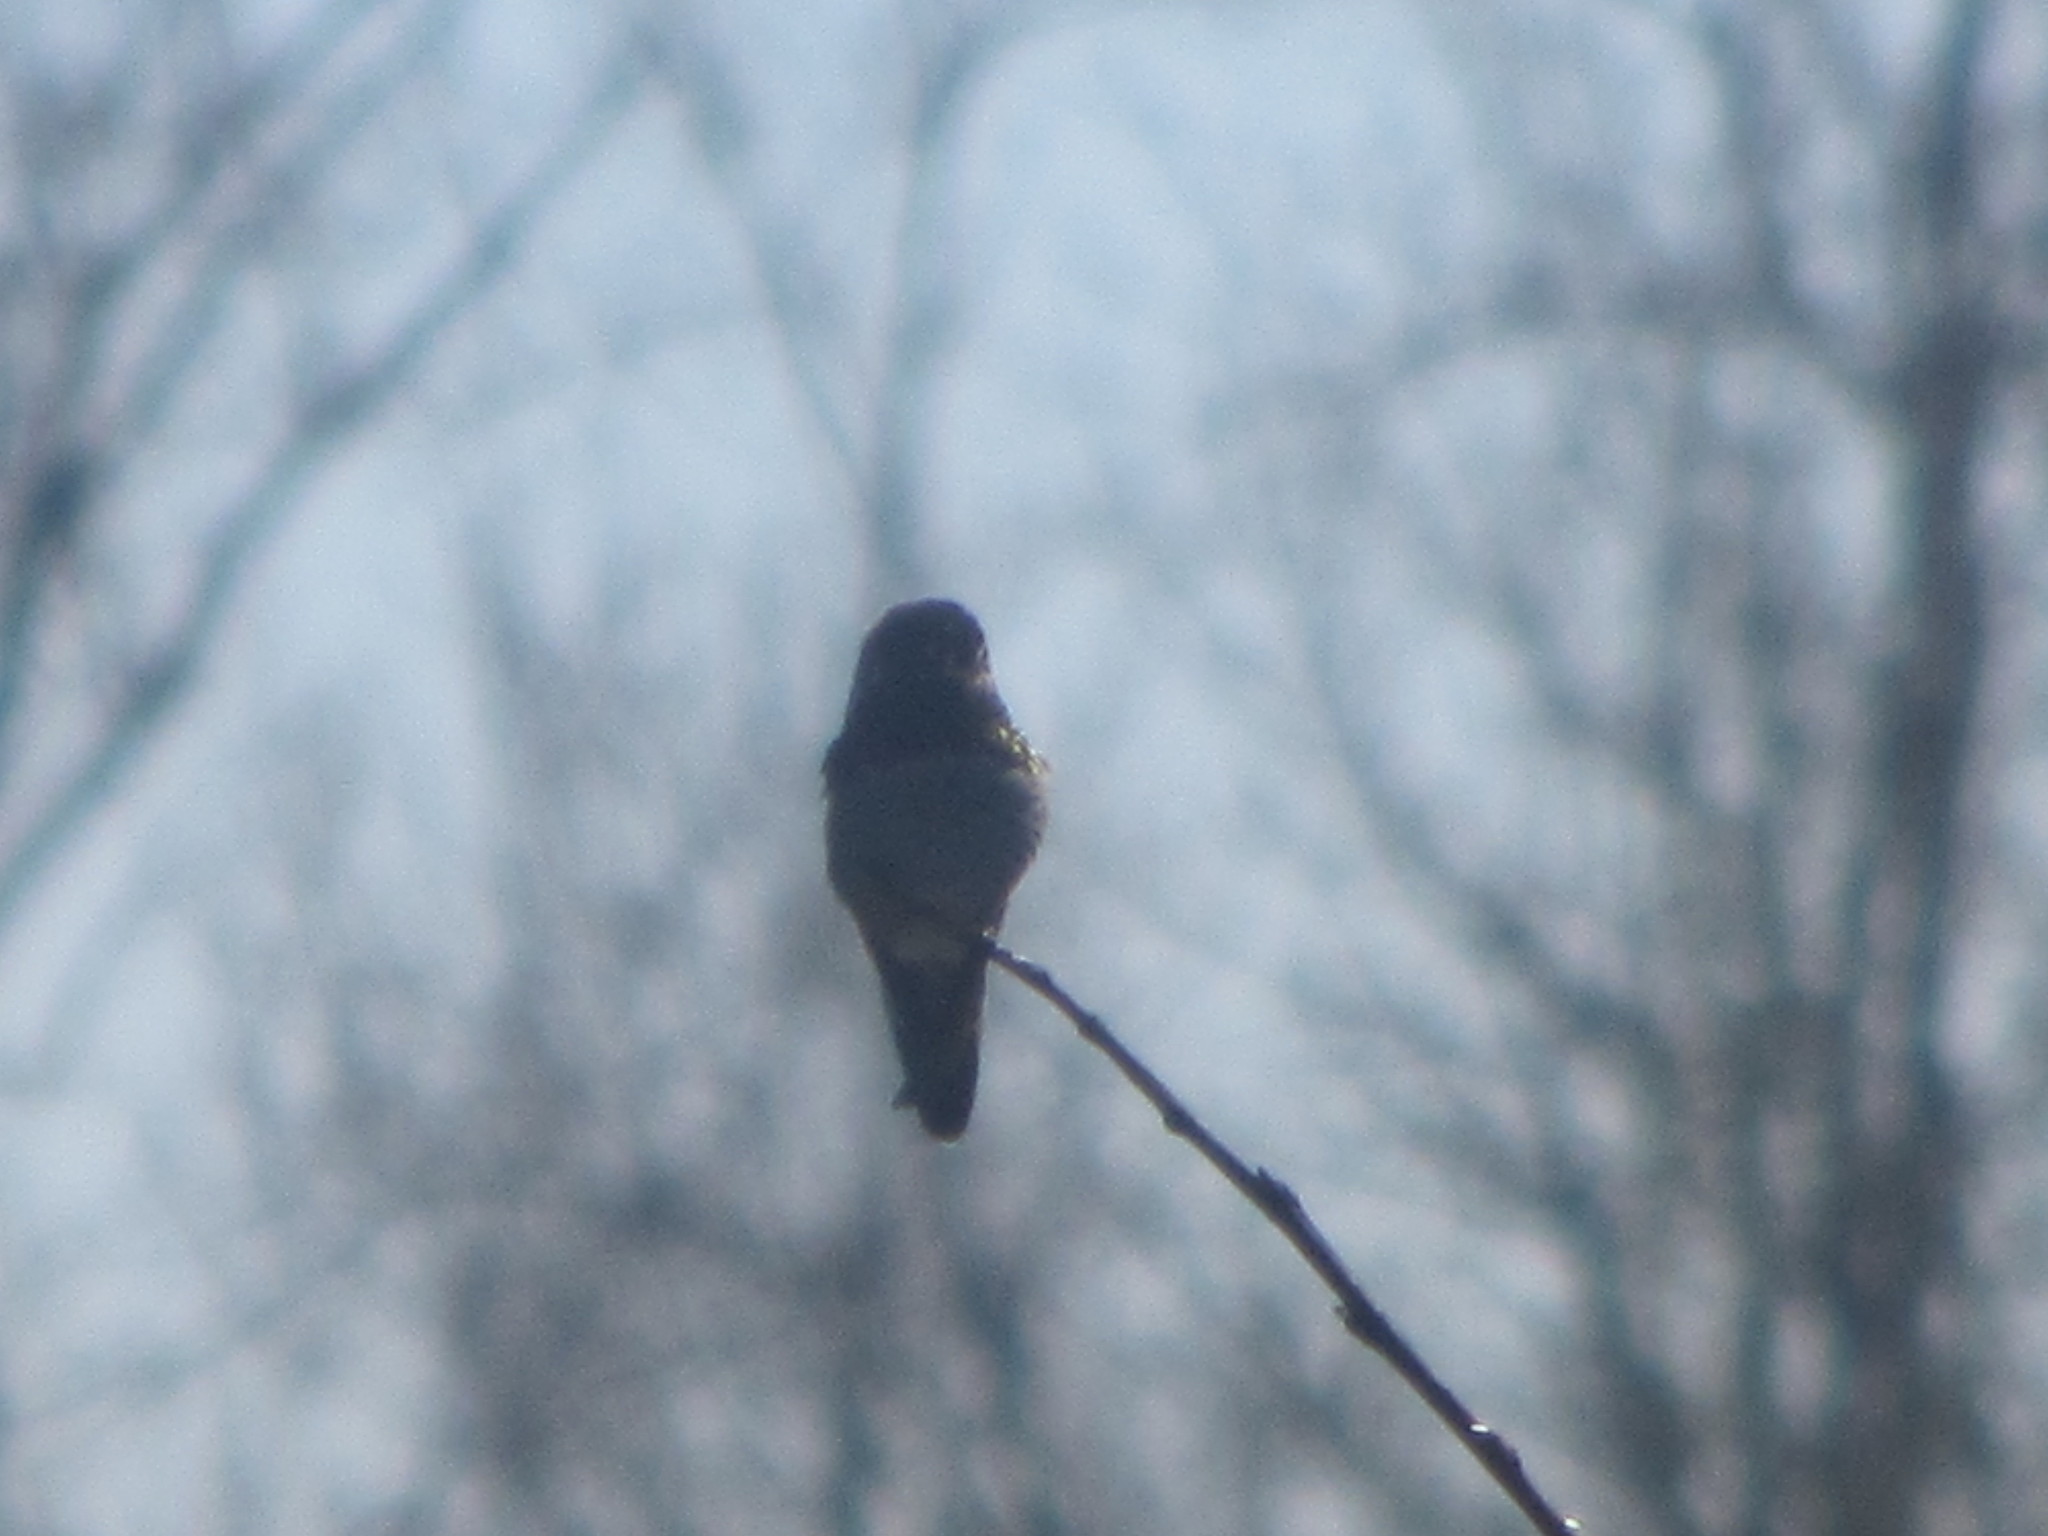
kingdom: Animalia
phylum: Chordata
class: Aves
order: Apodiformes
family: Trochilidae
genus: Calypte
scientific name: Calypte anna
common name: Anna's hummingbird
